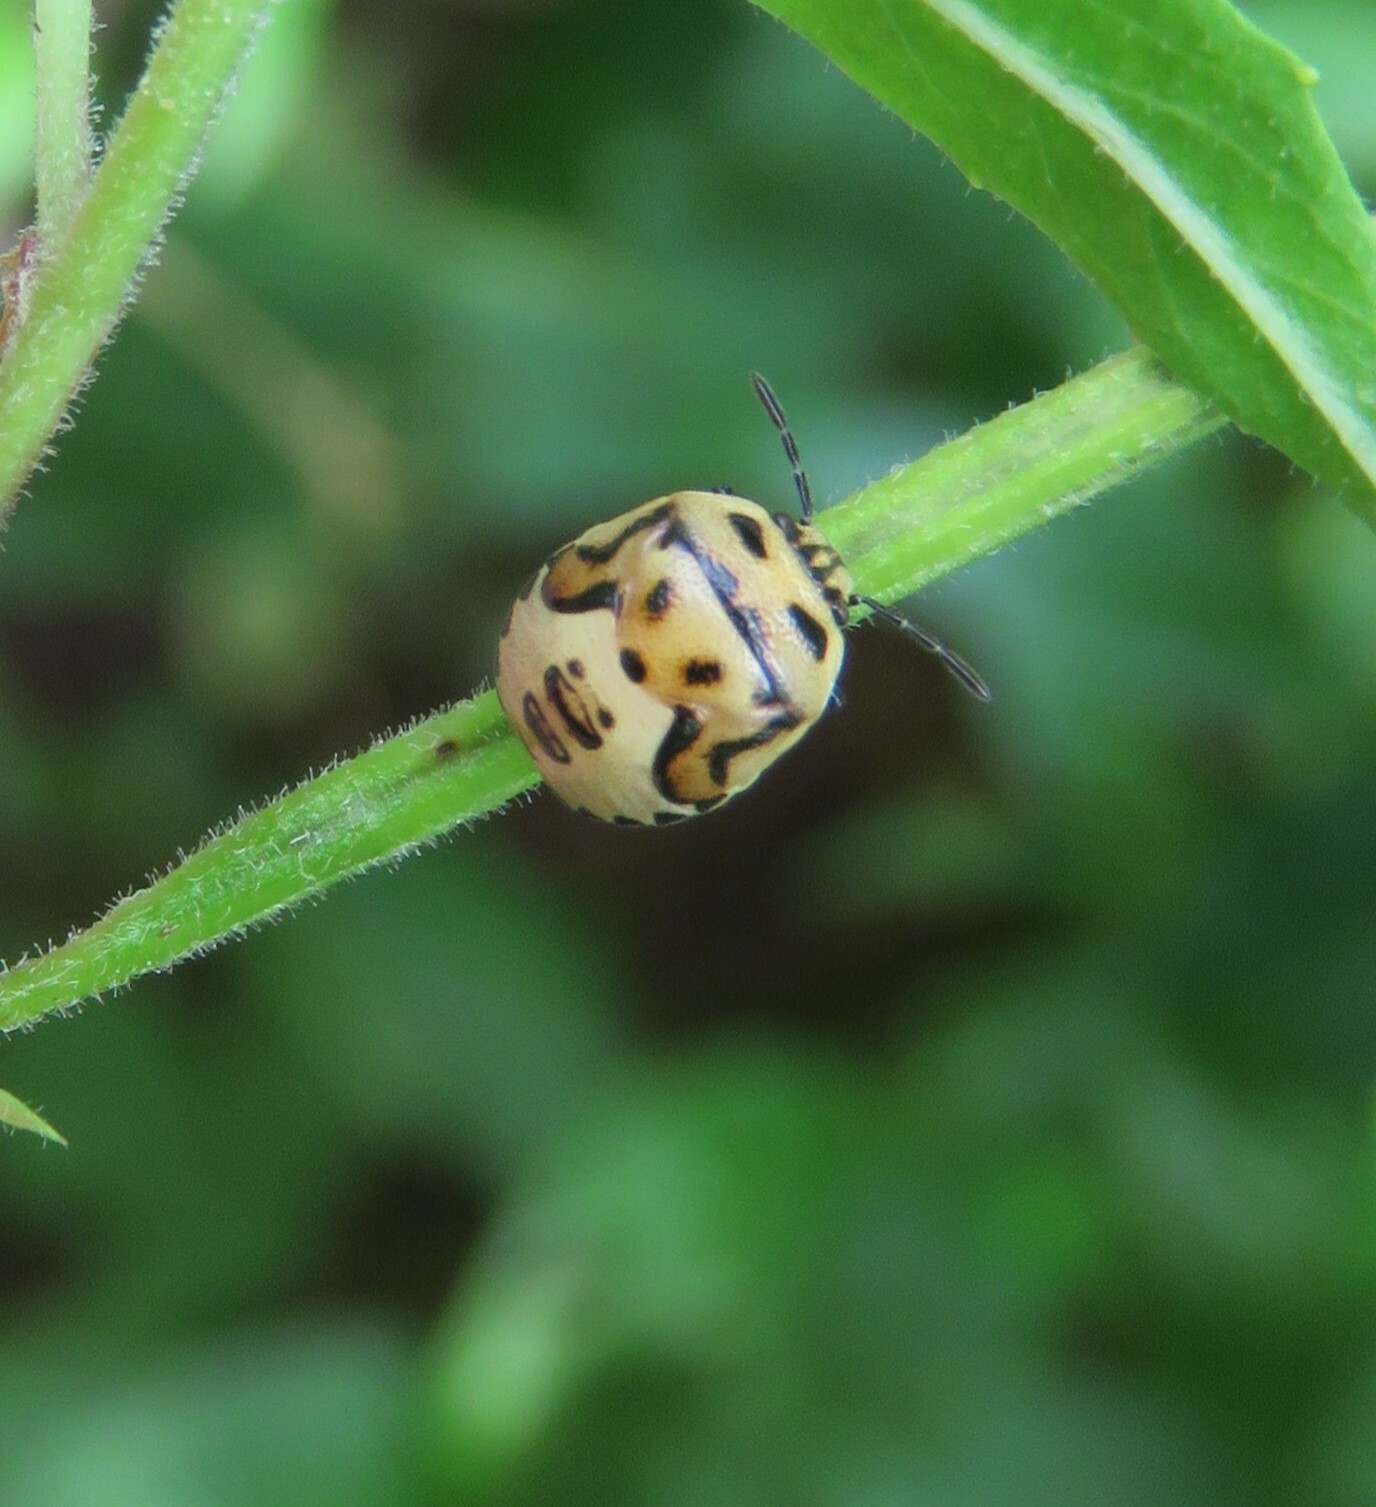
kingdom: Animalia
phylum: Arthropoda
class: Insecta
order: Hemiptera
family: Pentatomidae
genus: Cosmopepla
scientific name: Cosmopepla lintneriana
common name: Twice-stabbed stink bug
